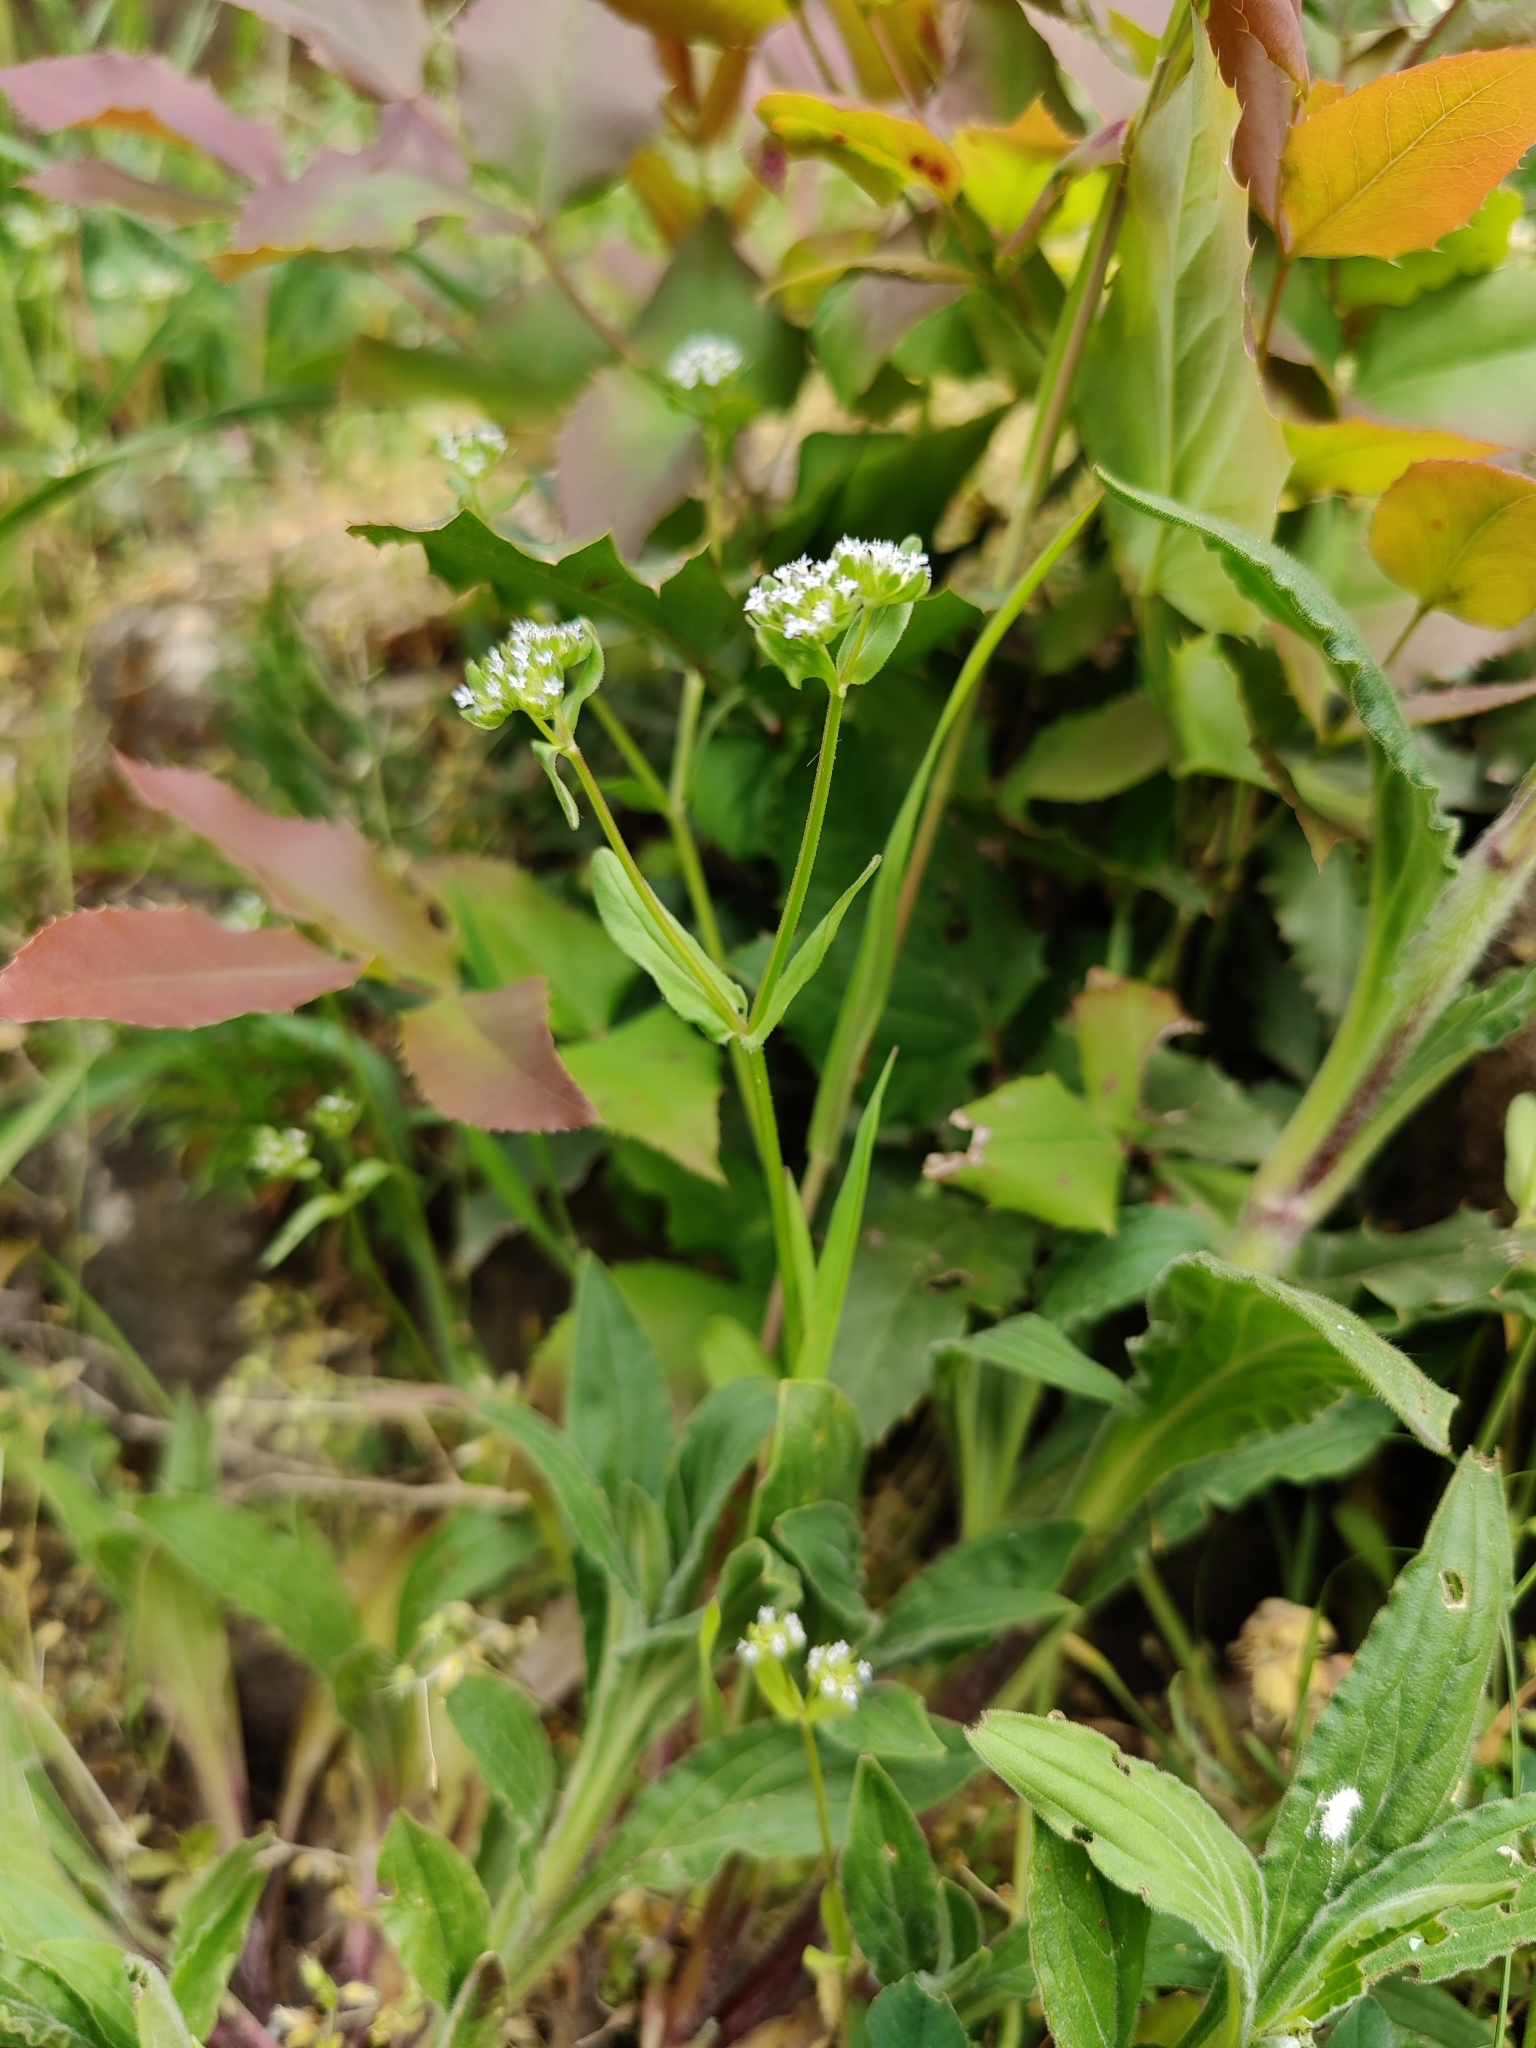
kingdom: Plantae
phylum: Tracheophyta
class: Magnoliopsida
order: Dipsacales
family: Caprifoliaceae
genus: Valerianella
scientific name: Valerianella locusta
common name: Common cornsalad
